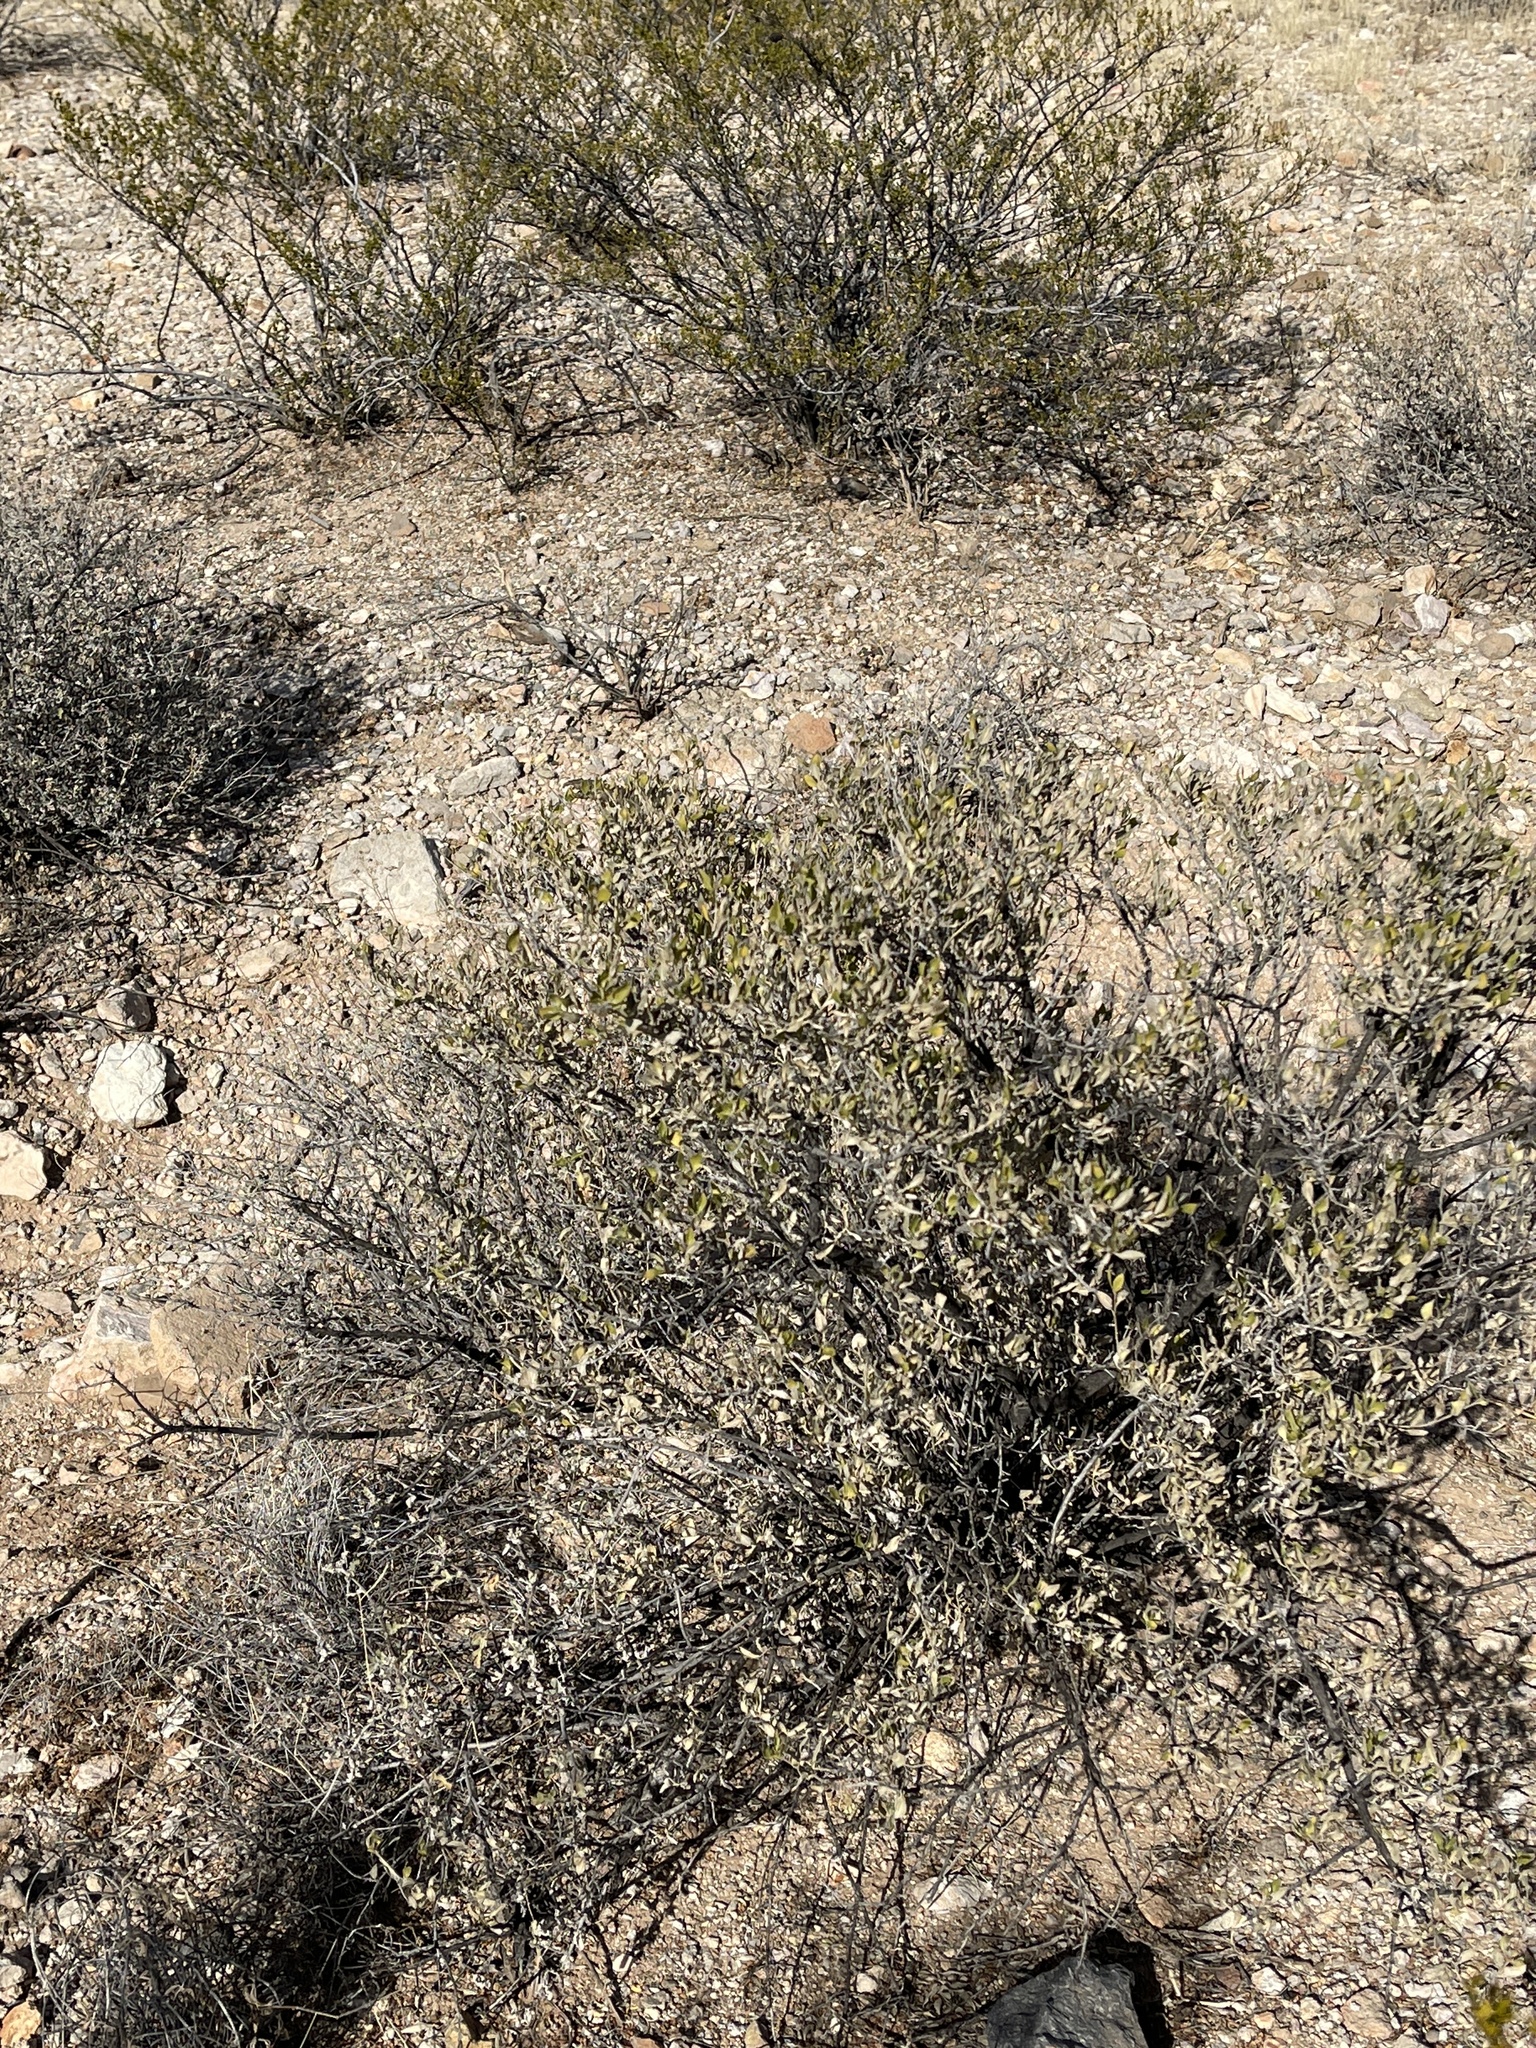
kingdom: Plantae
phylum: Tracheophyta
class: Magnoliopsida
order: Asterales
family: Asteraceae
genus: Flourensia
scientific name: Flourensia cernua
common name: Varnishbush
